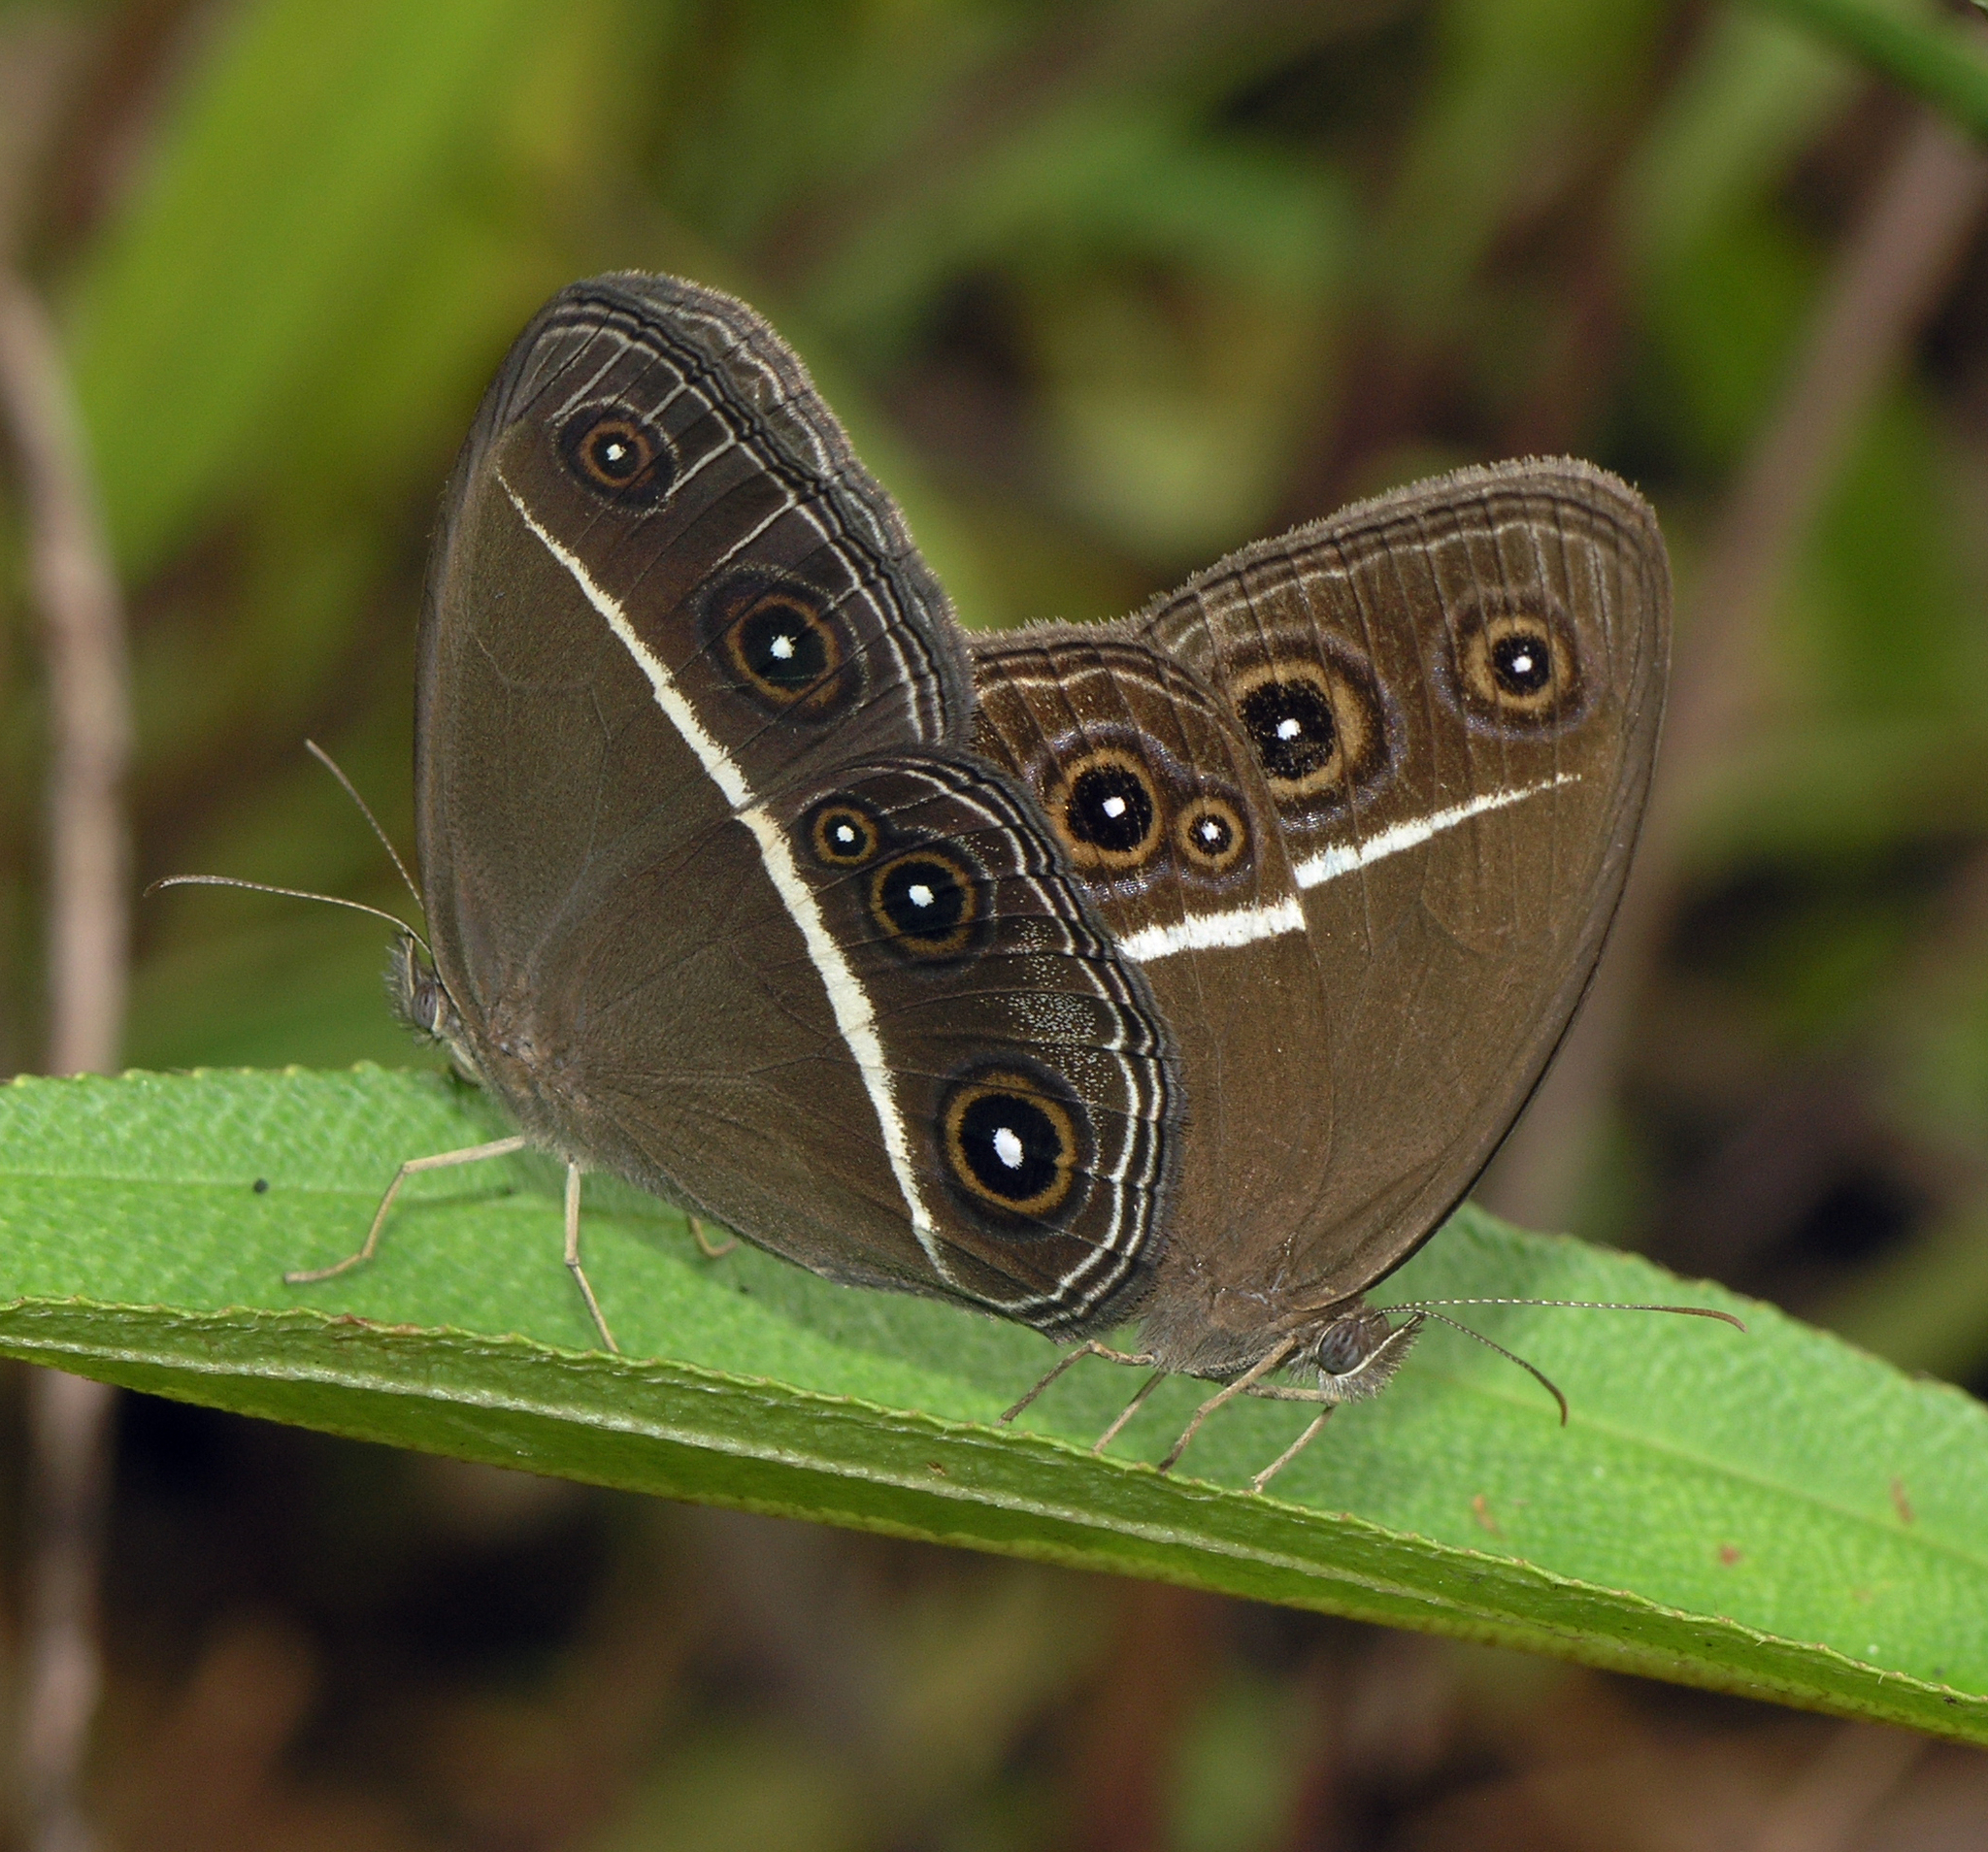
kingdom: Animalia
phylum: Arthropoda
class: Insecta
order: Lepidoptera
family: Nymphalidae
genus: Orsotriaena
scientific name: Orsotriaena medus
